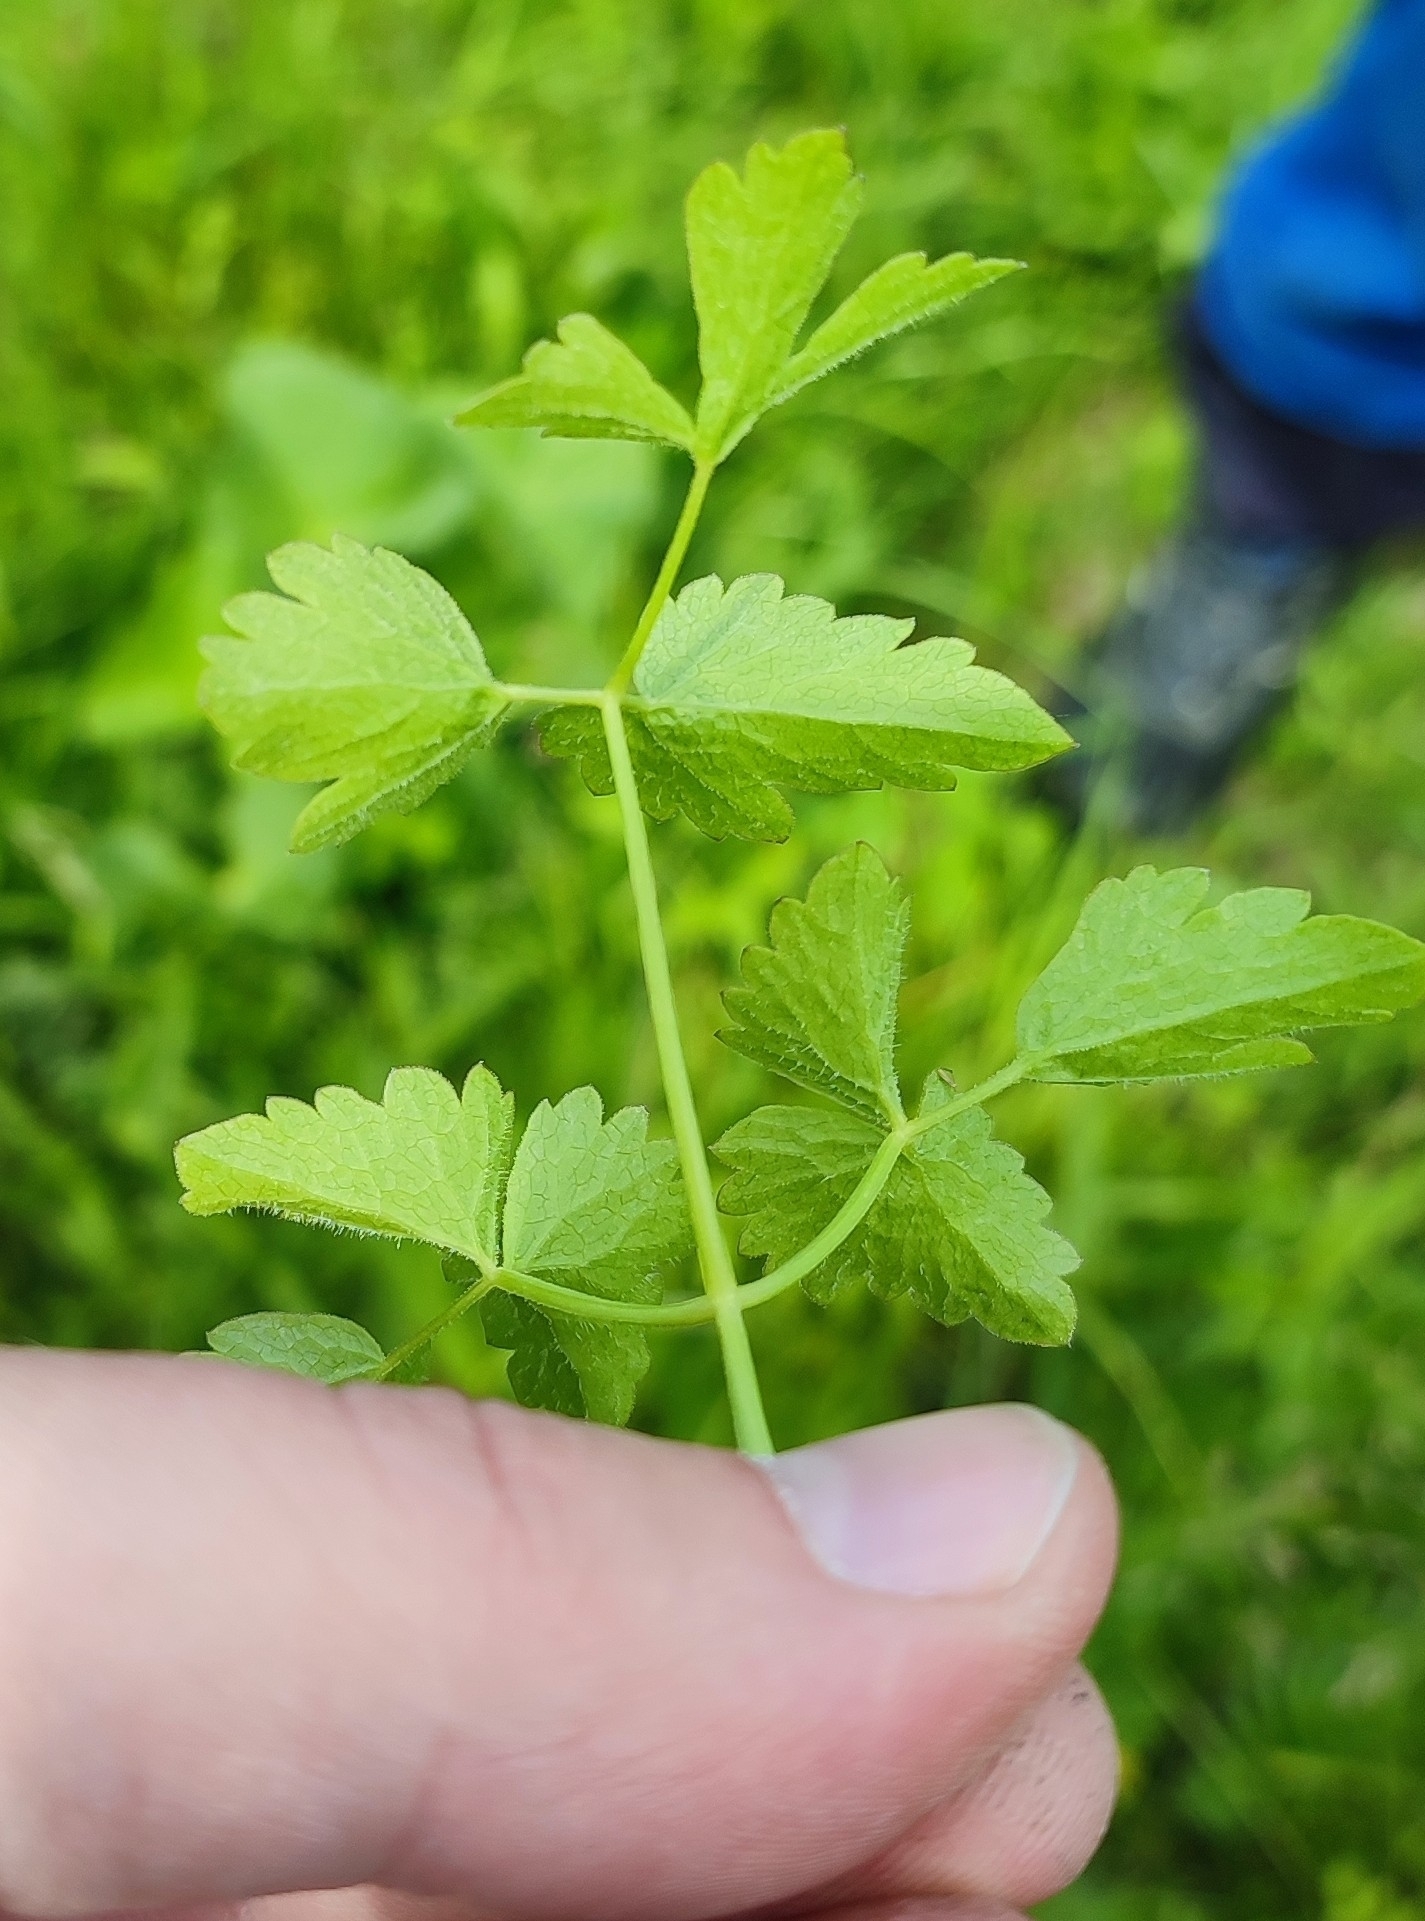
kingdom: Plantae
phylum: Tracheophyta
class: Magnoliopsida
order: Apiales
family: Apiaceae
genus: Ostericum
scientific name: Ostericum palustre
